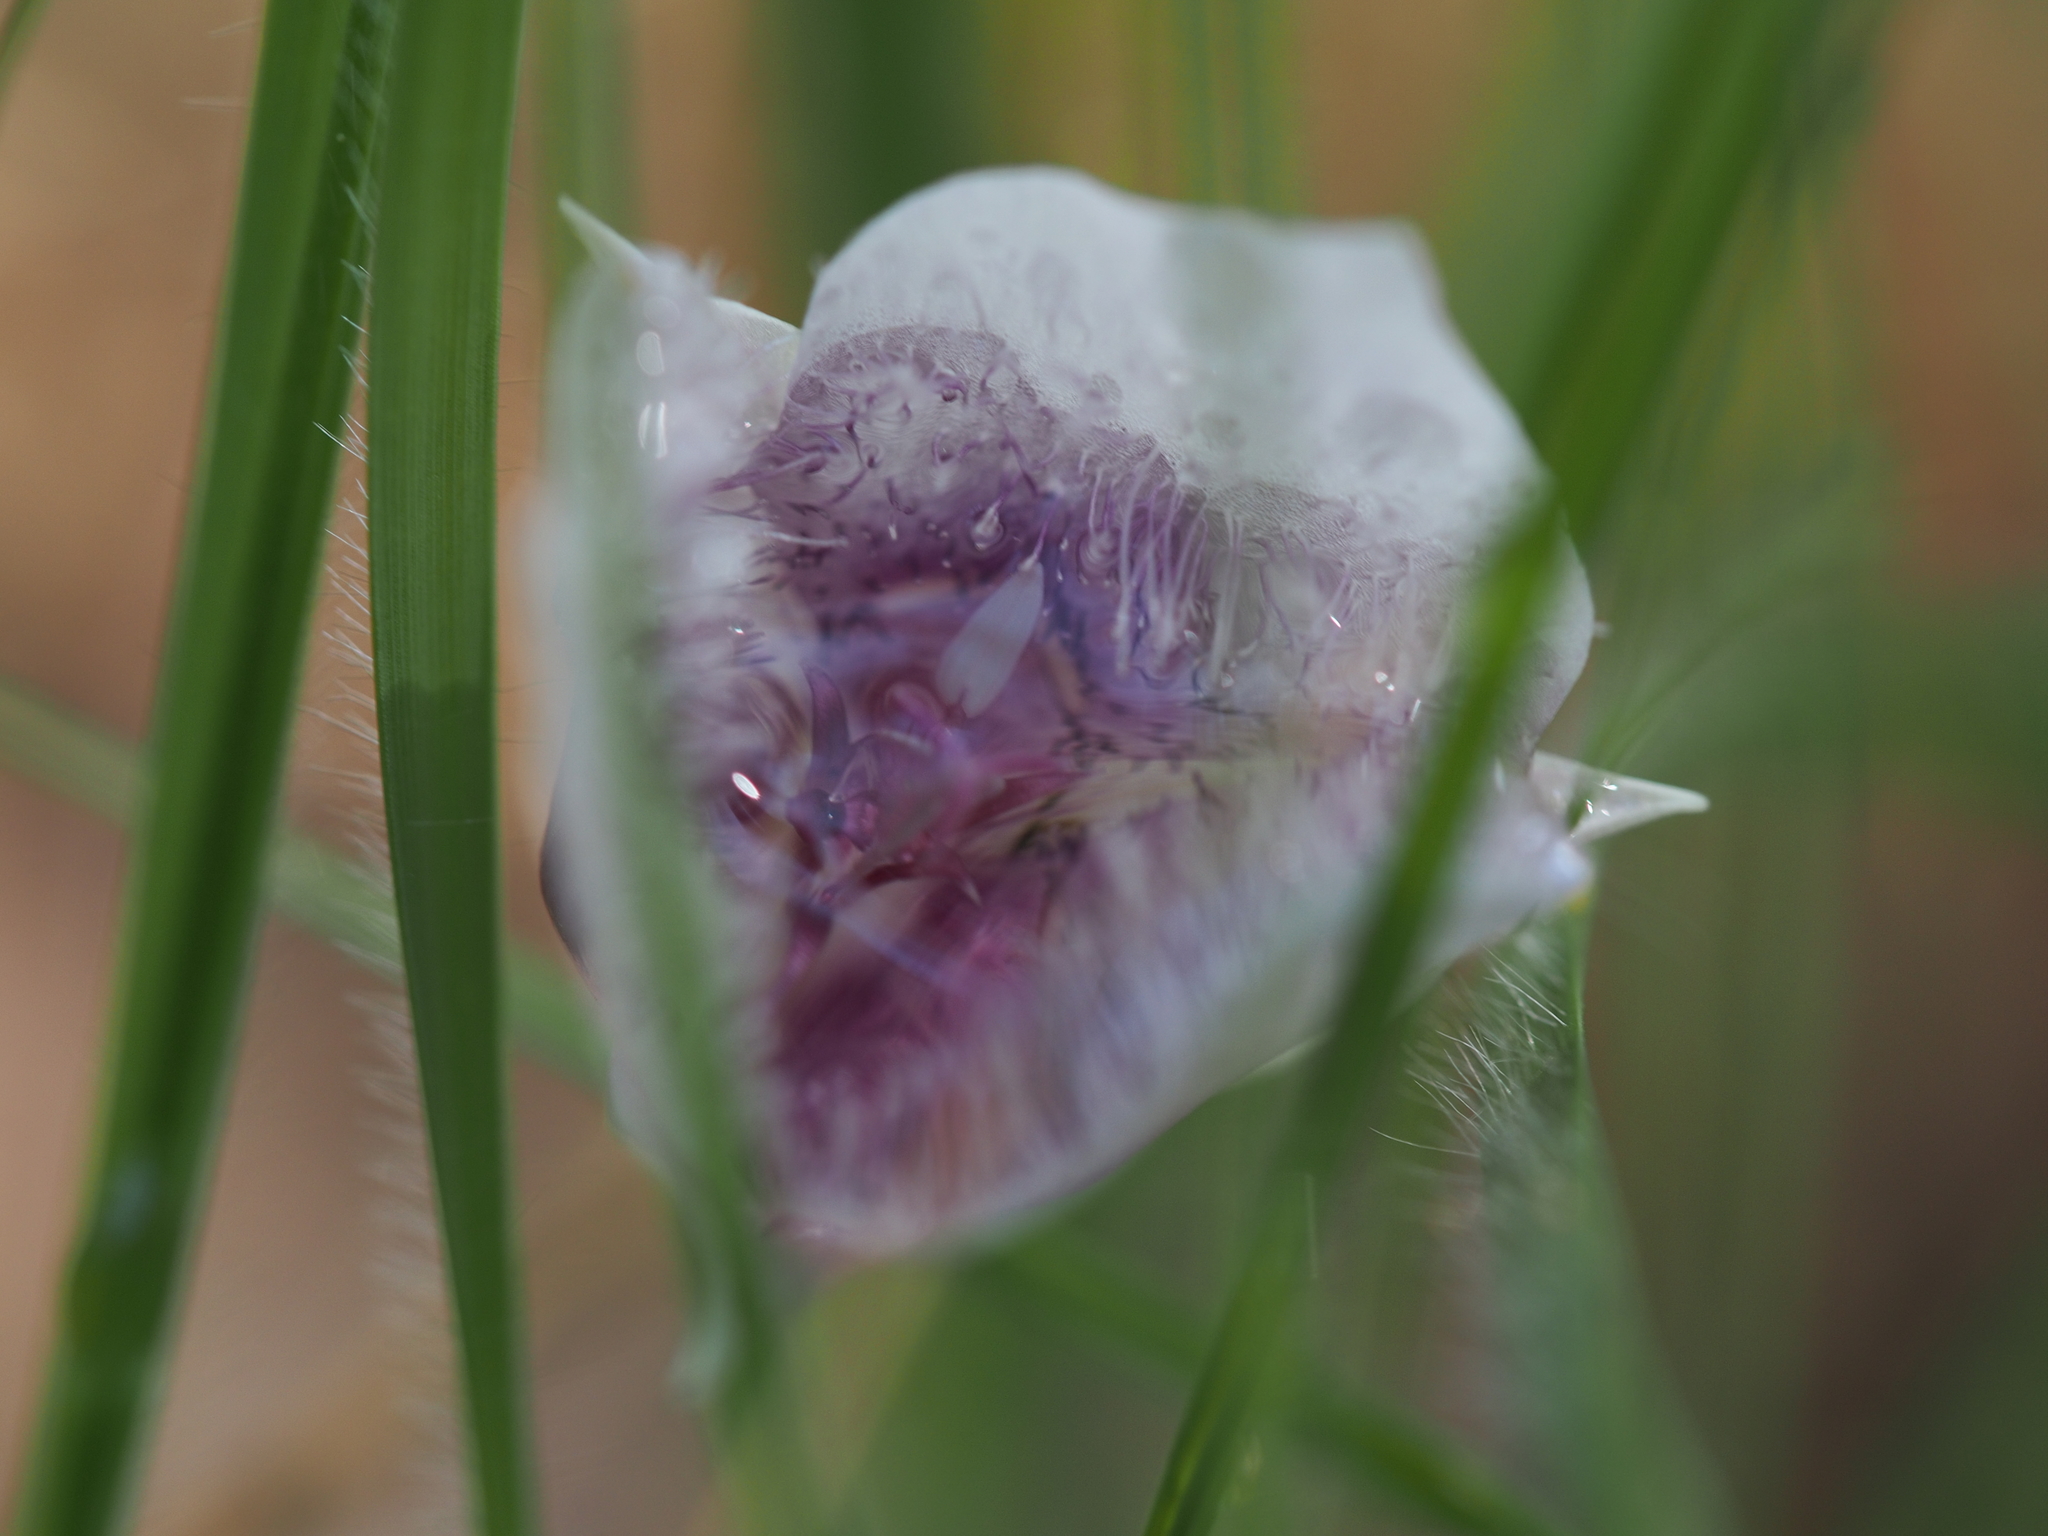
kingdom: Plantae
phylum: Tracheophyta
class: Liliopsida
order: Liliales
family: Liliaceae
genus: Calochortus
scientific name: Calochortus tolmiei
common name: Pussy-ears
